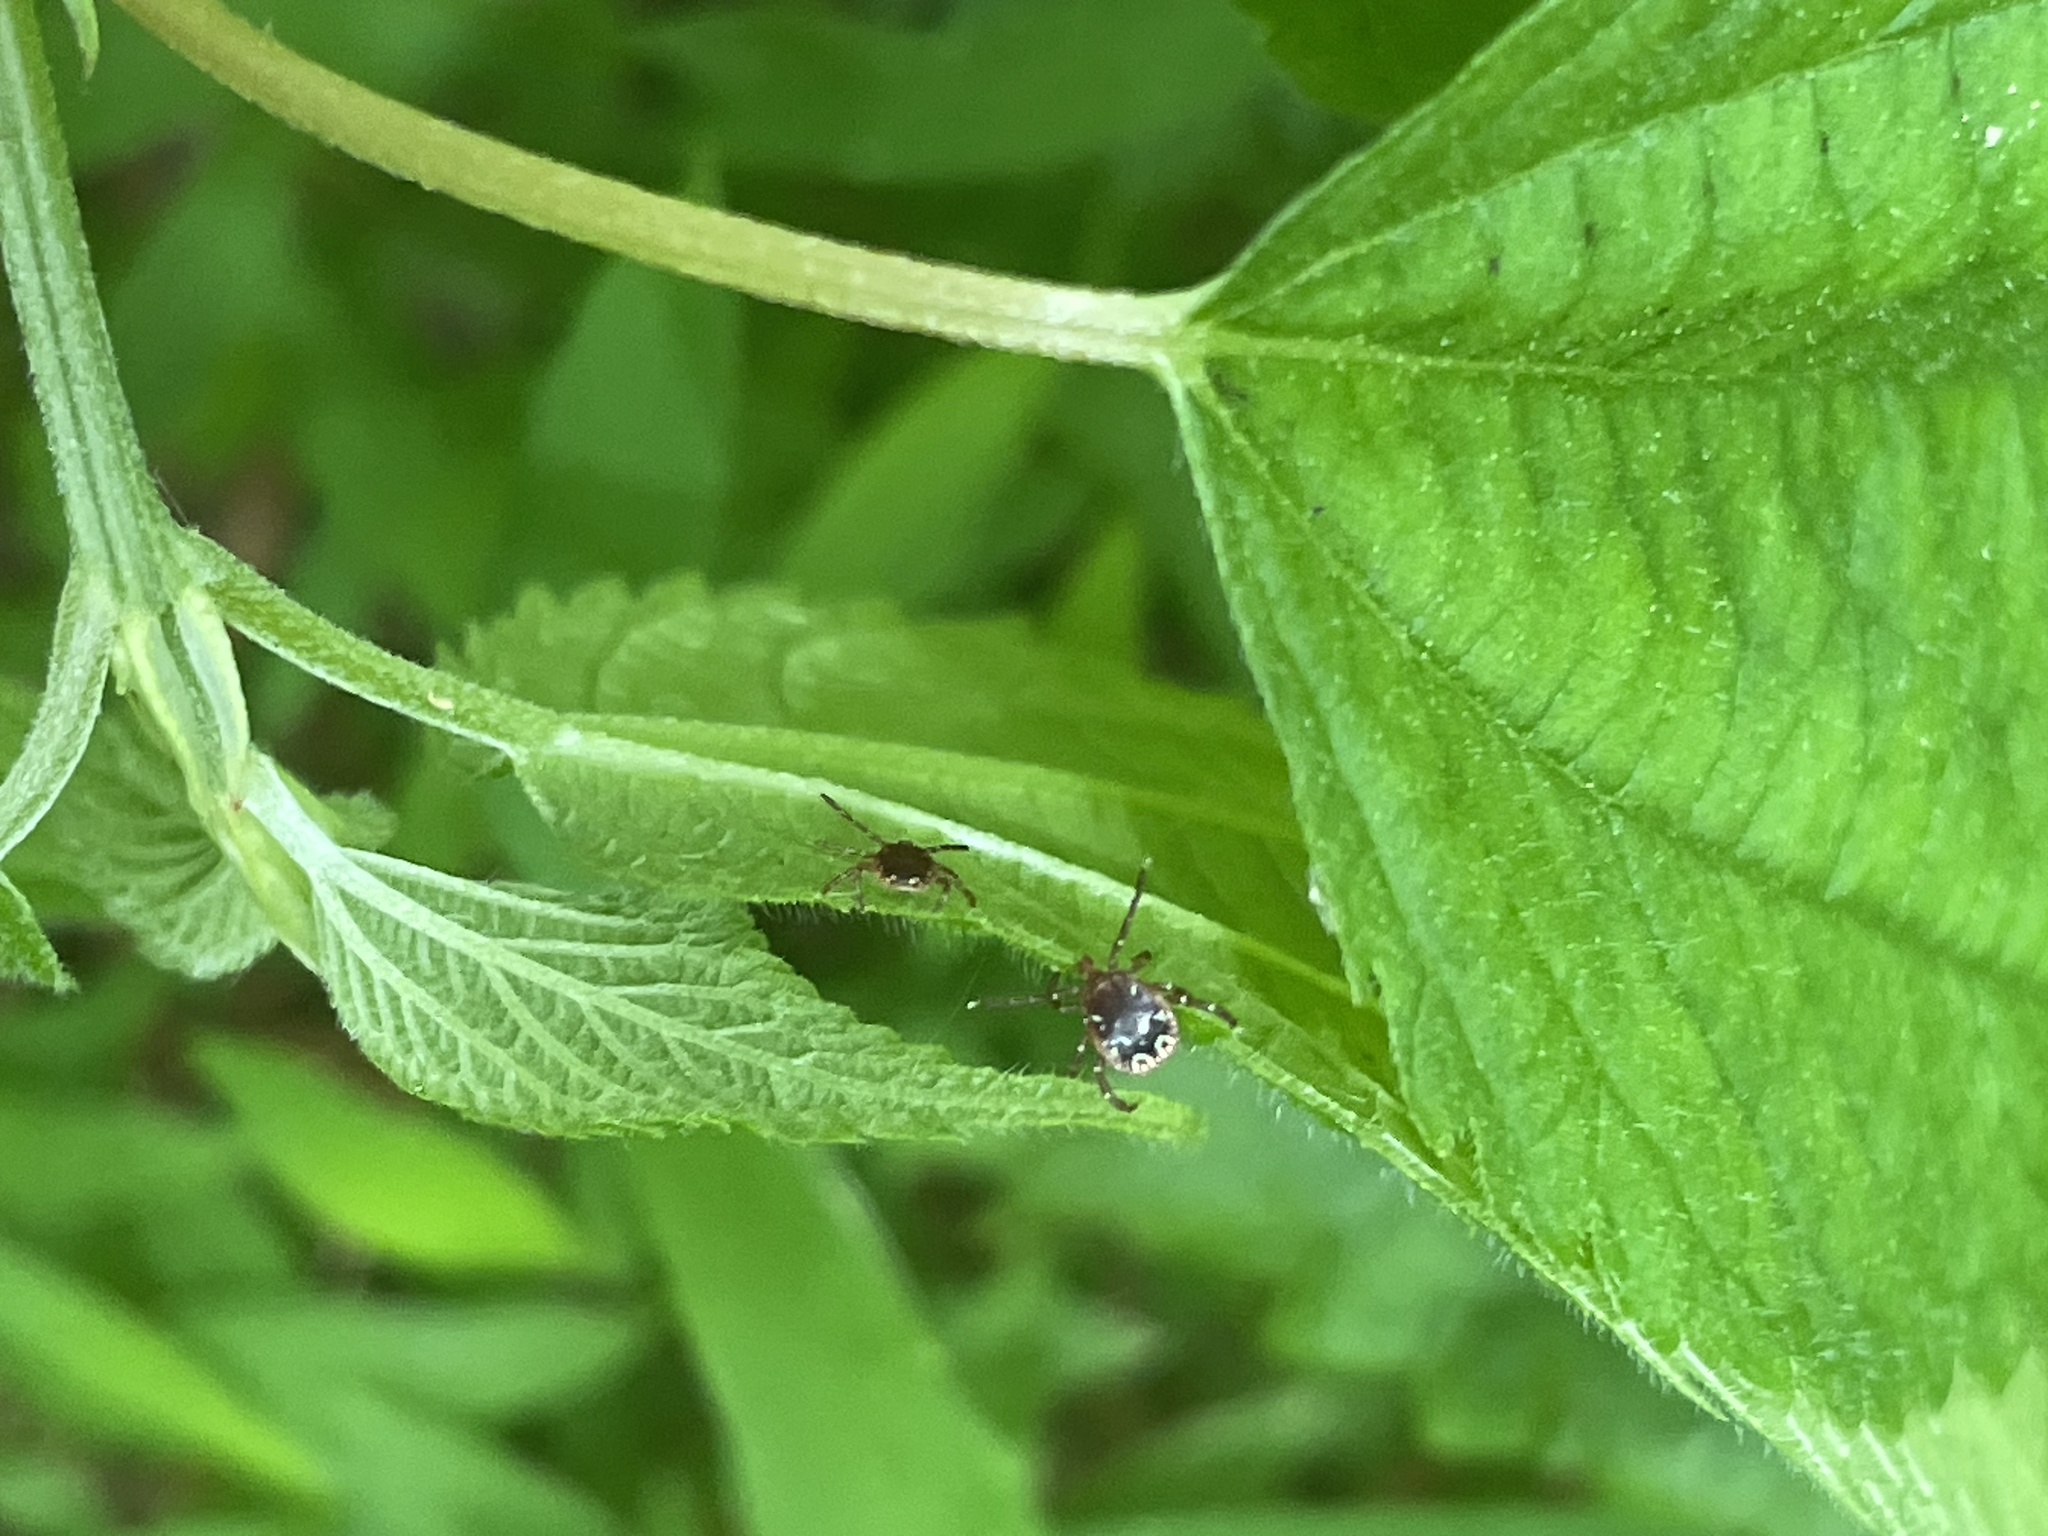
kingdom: Animalia
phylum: Arthropoda
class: Arachnida
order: Ixodida
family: Ixodidae
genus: Amblyomma
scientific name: Amblyomma americanum
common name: Lone star tick
